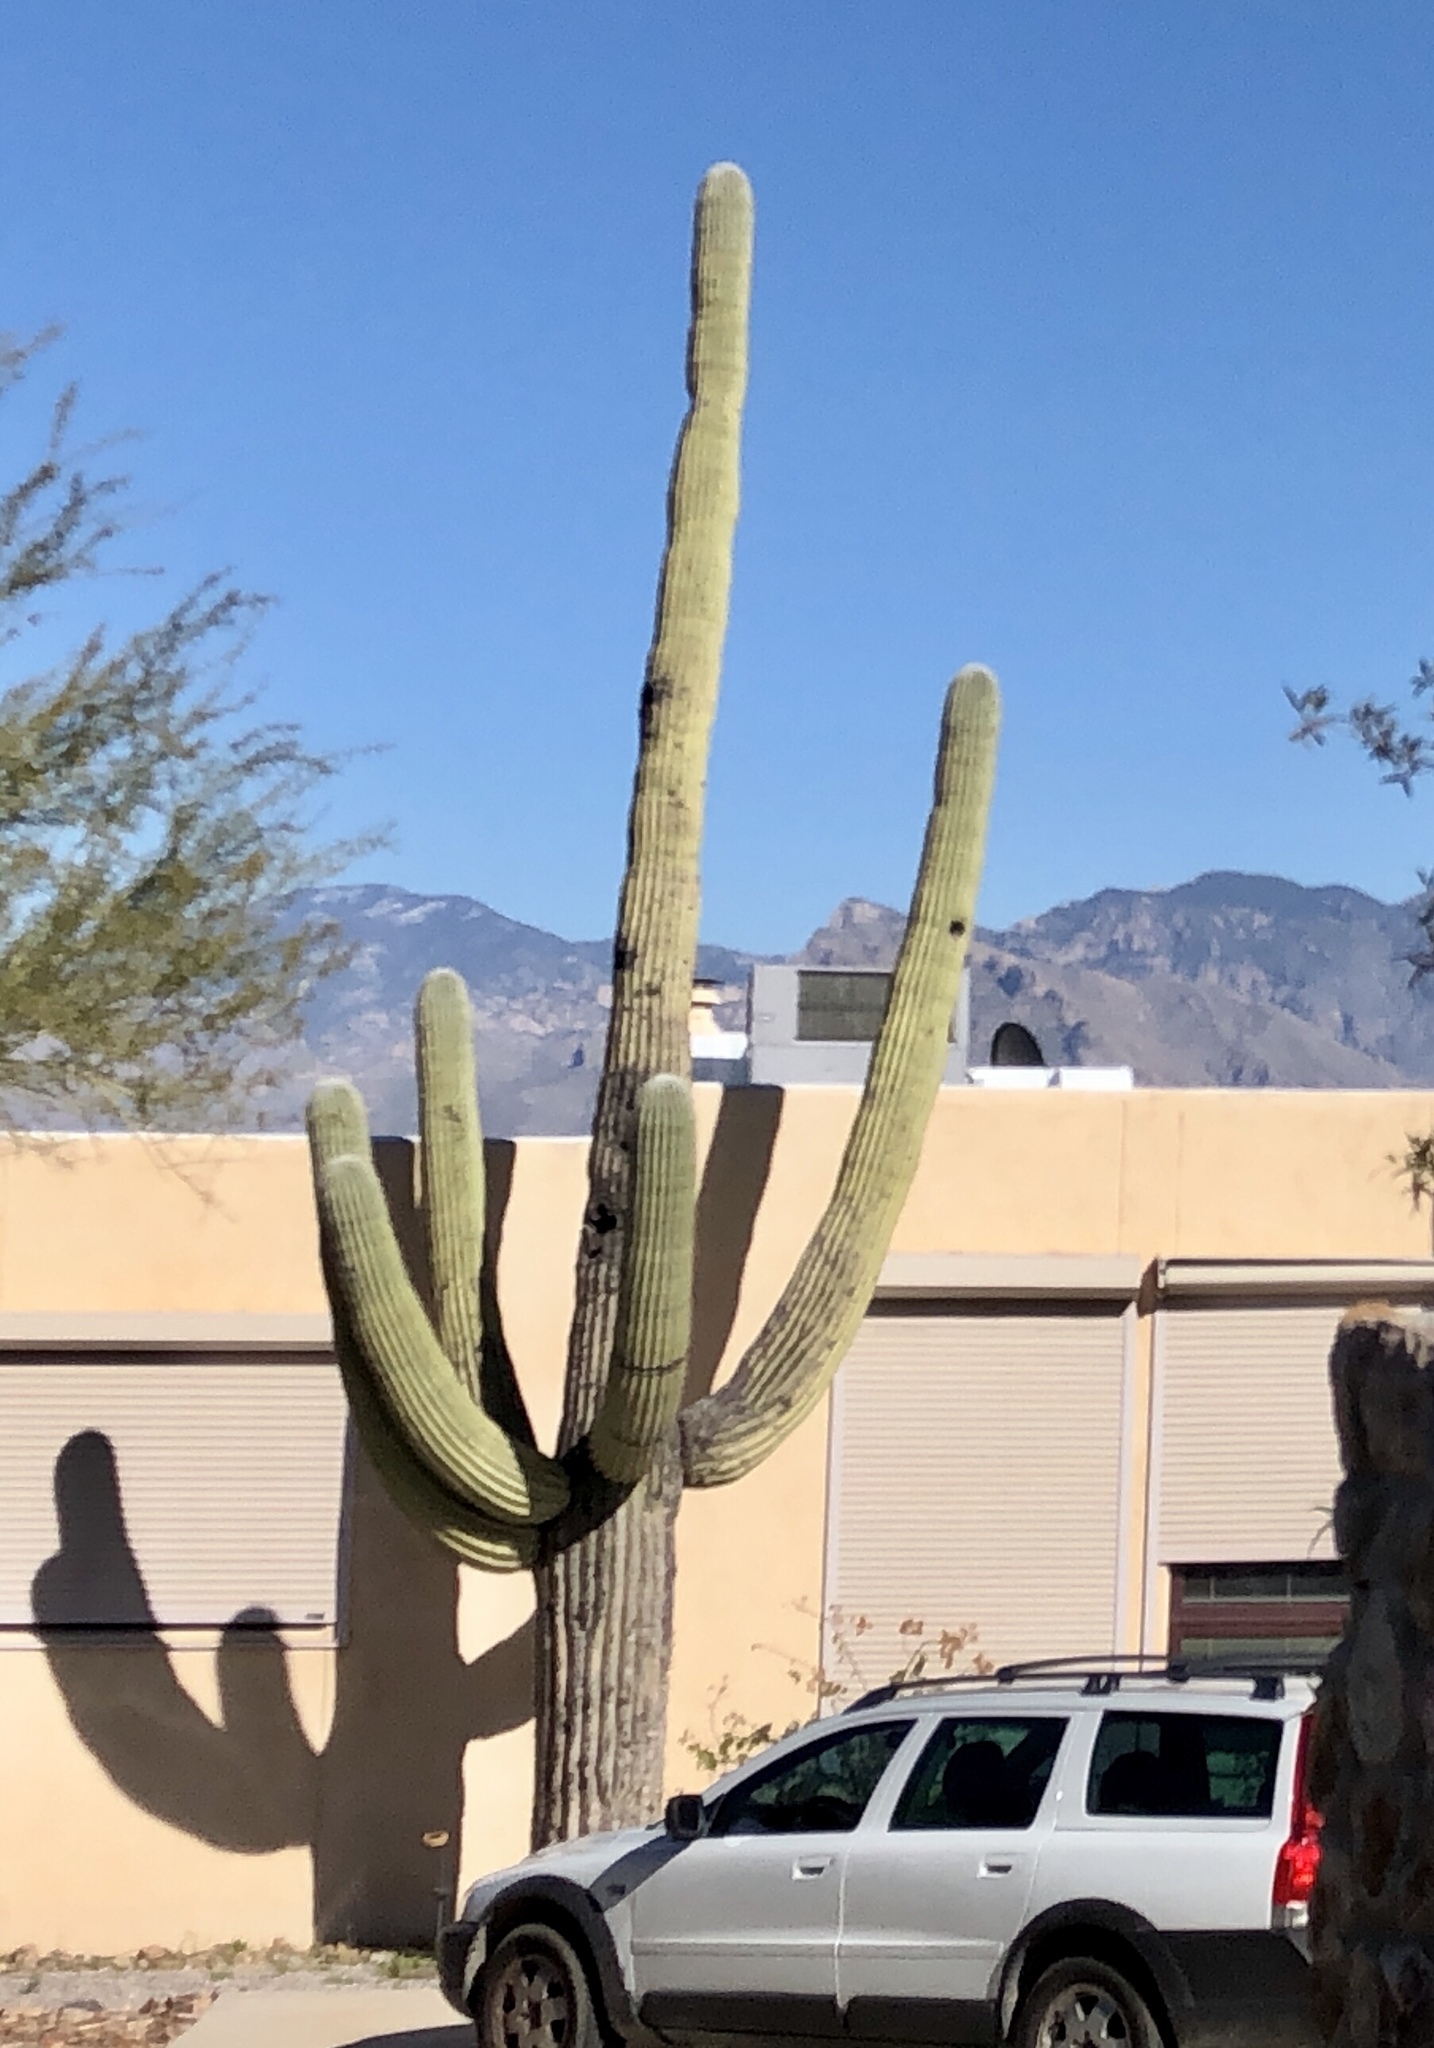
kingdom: Plantae
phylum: Tracheophyta
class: Magnoliopsida
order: Caryophyllales
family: Cactaceae
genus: Carnegiea
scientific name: Carnegiea gigantea
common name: Saguaro
